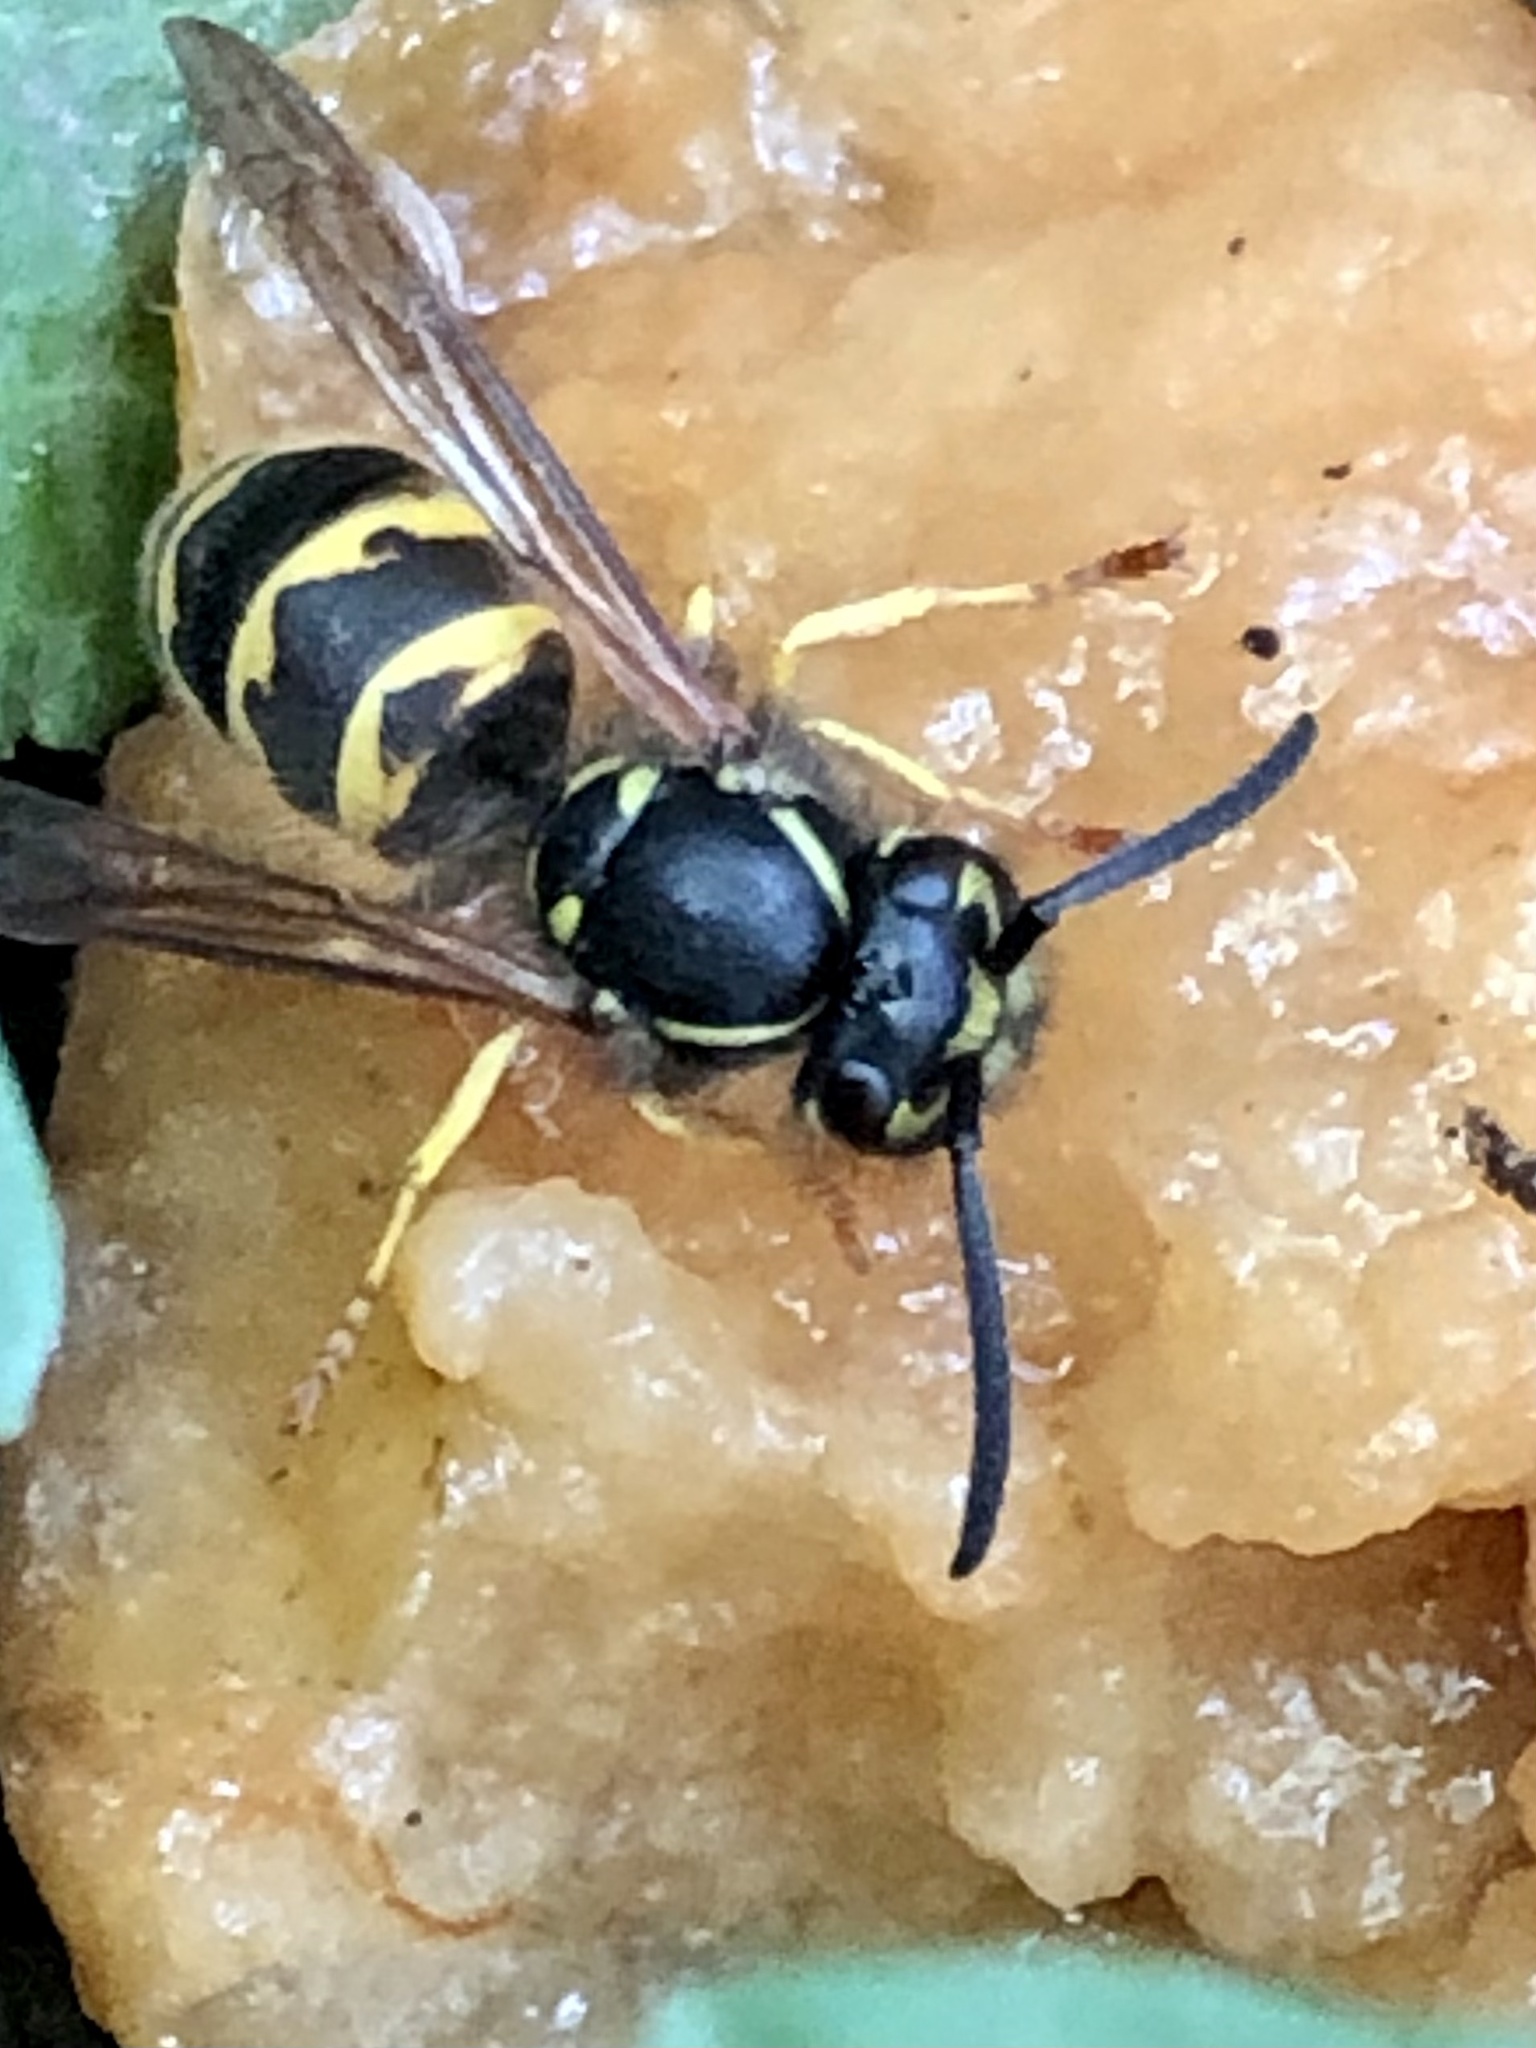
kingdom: Animalia
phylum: Arthropoda
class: Insecta
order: Hymenoptera
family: Vespidae
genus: Vespula
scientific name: Vespula alascensis
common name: Alaska yellowjacket
